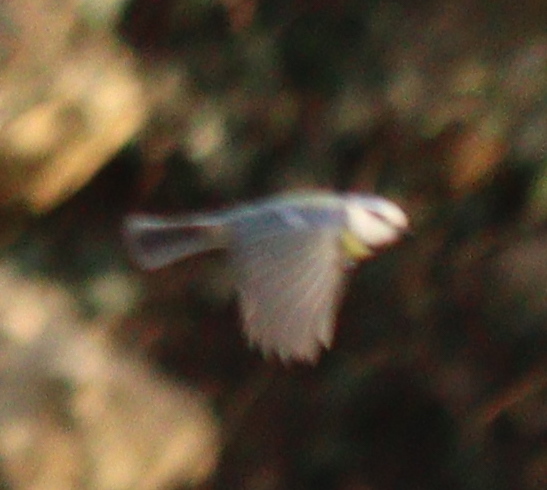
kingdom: Animalia
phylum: Chordata
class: Aves
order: Passeriformes
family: Paridae
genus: Cyanistes
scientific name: Cyanistes caeruleus
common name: Eurasian blue tit
